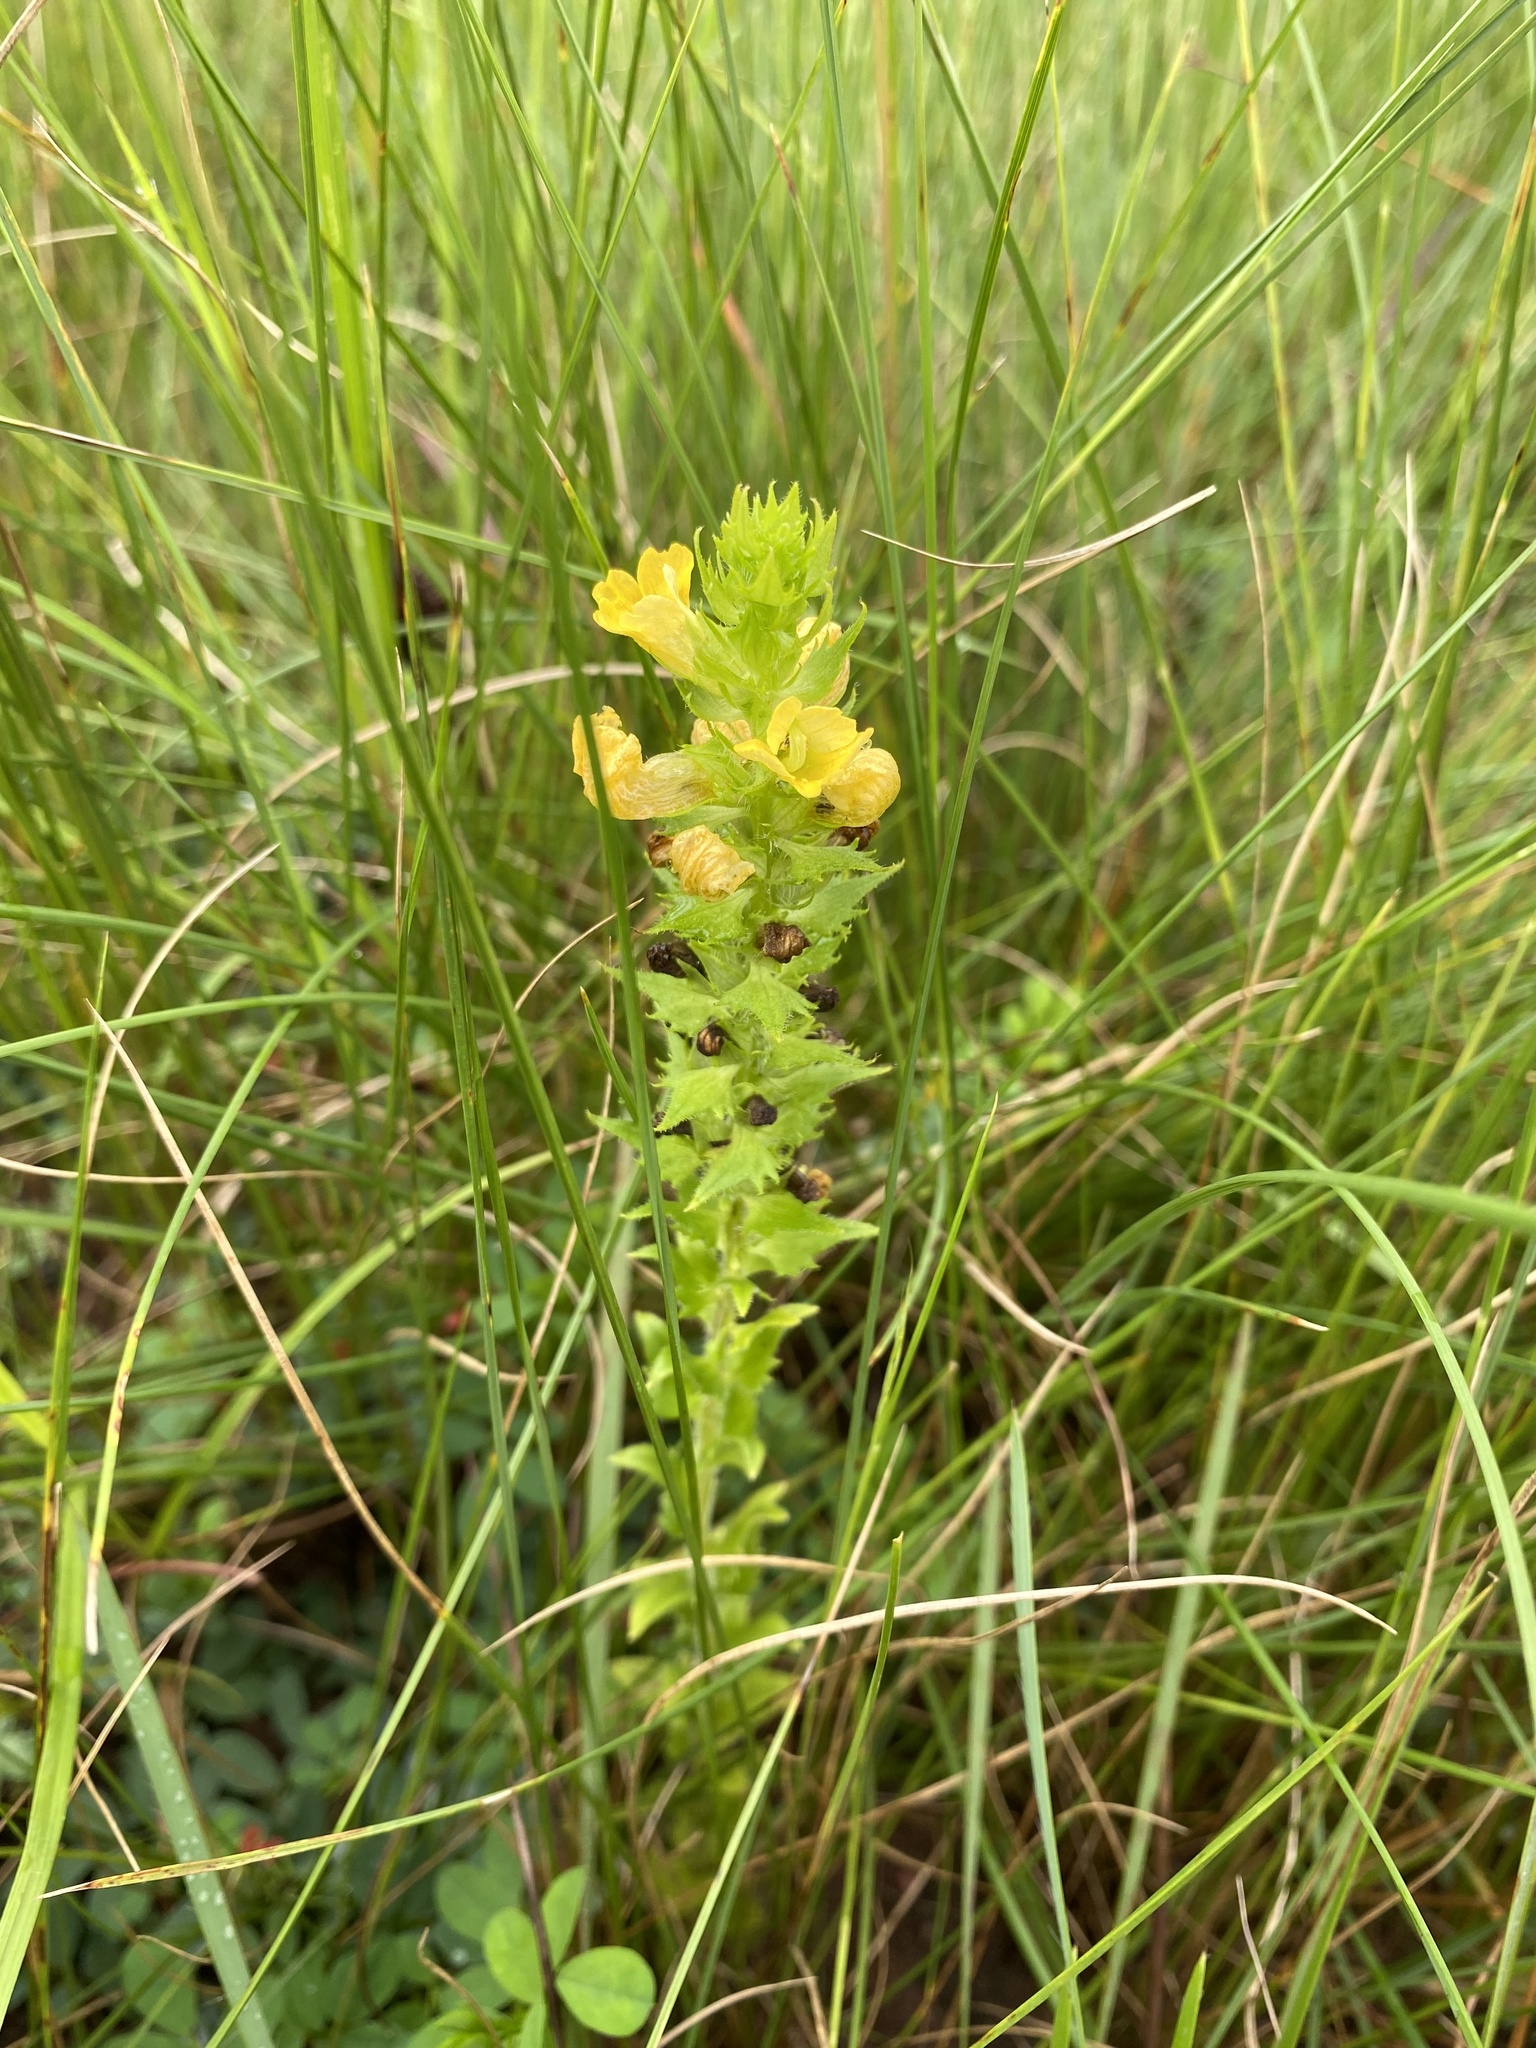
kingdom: Plantae
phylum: Tracheophyta
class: Magnoliopsida
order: Lamiales
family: Orobanchaceae
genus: Alectra
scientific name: Alectra sessiliflora
